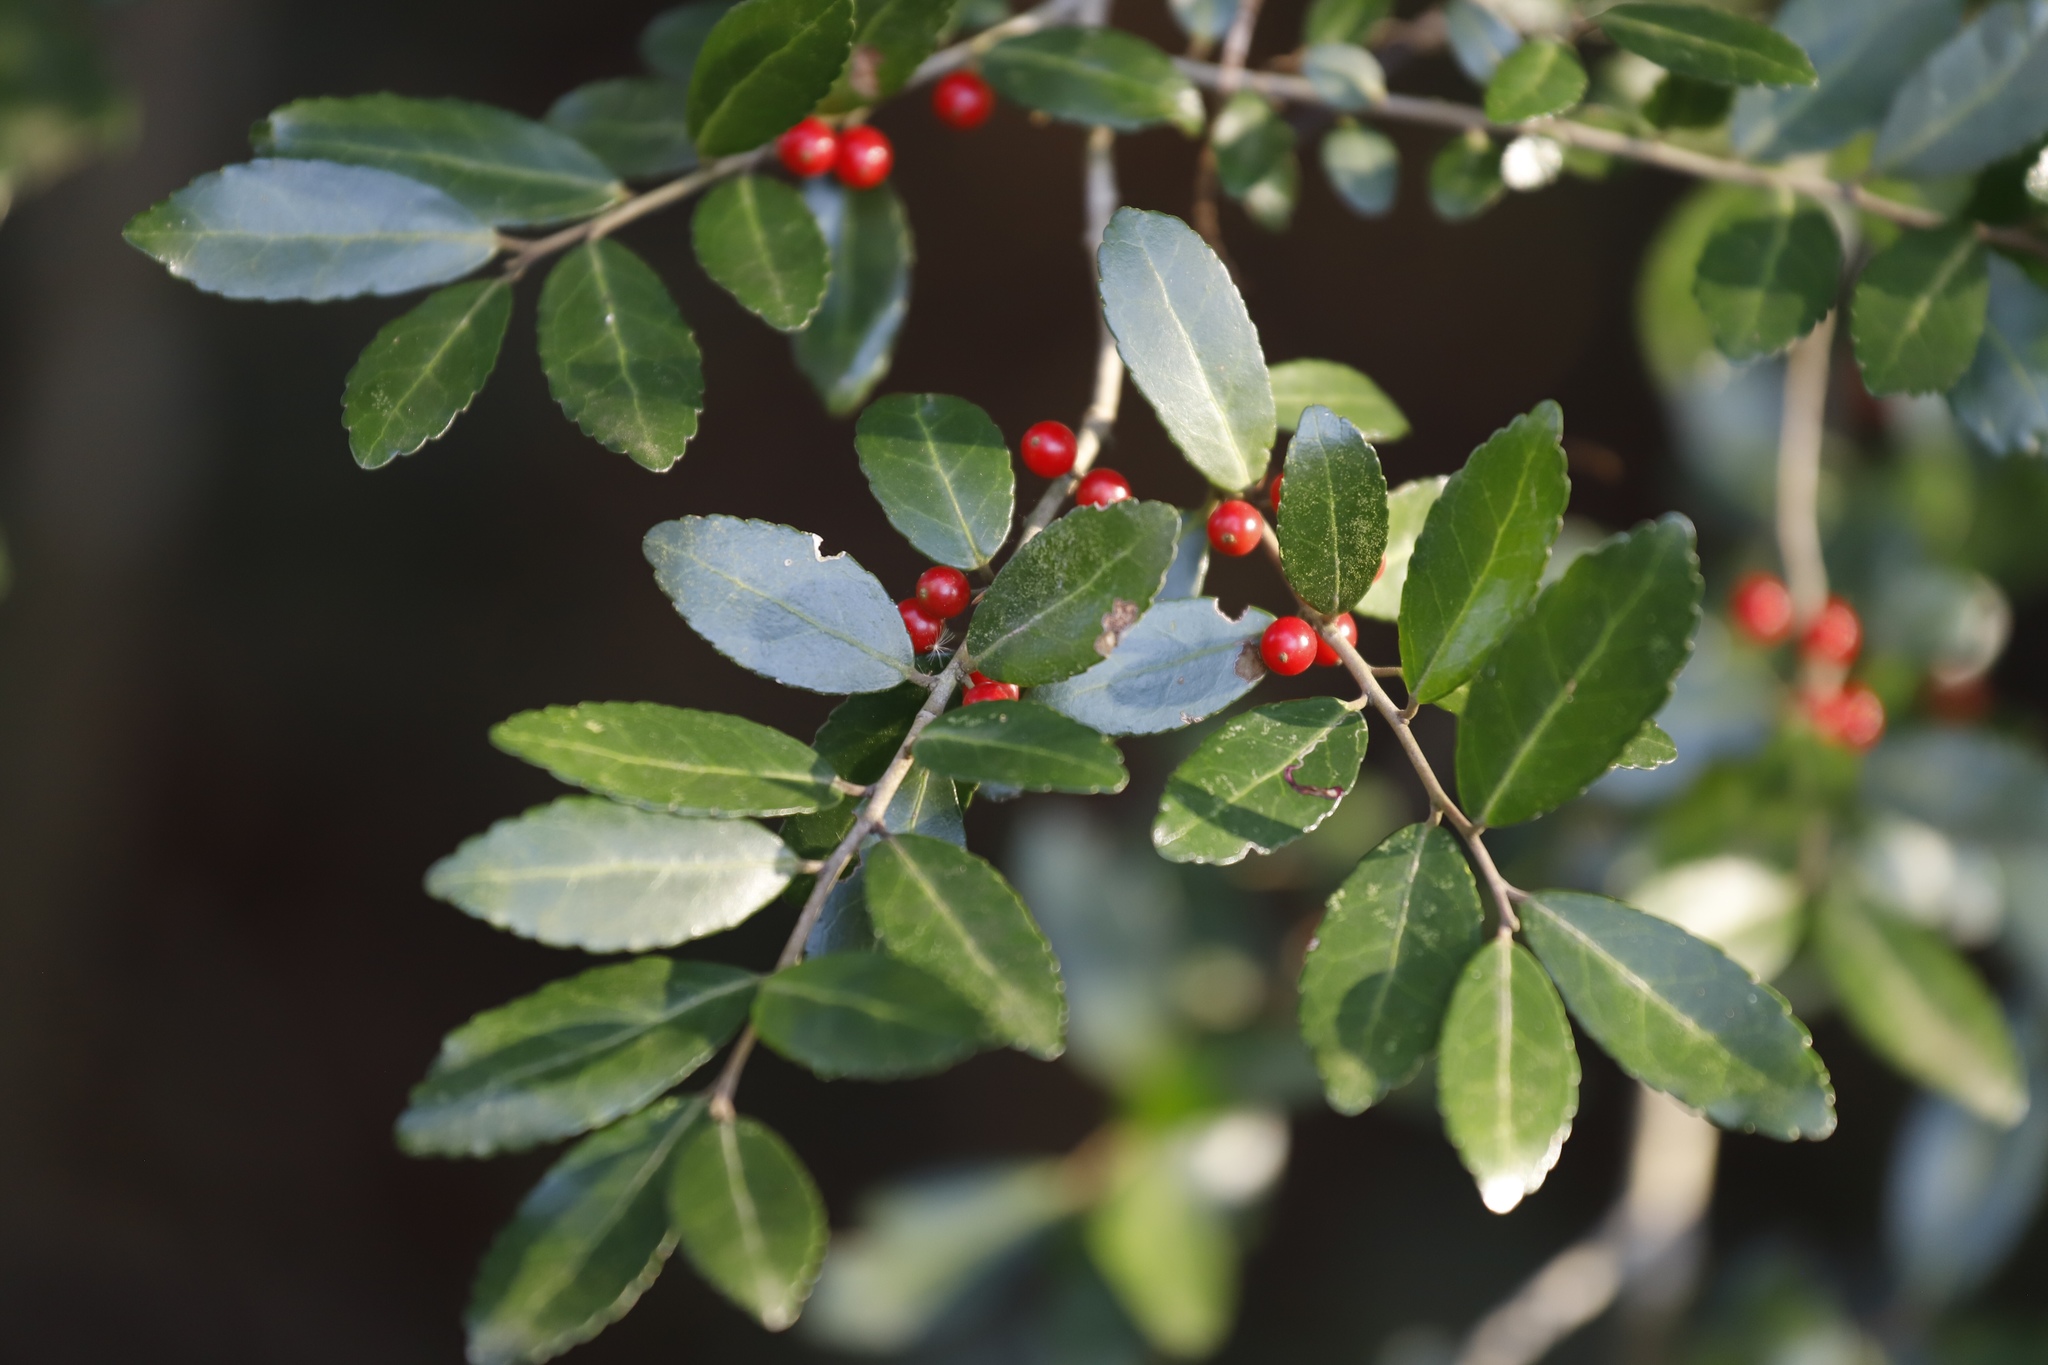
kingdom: Plantae
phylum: Tracheophyta
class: Magnoliopsida
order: Aquifoliales
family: Aquifoliaceae
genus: Ilex
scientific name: Ilex vomitoria
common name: Yaupon holly
